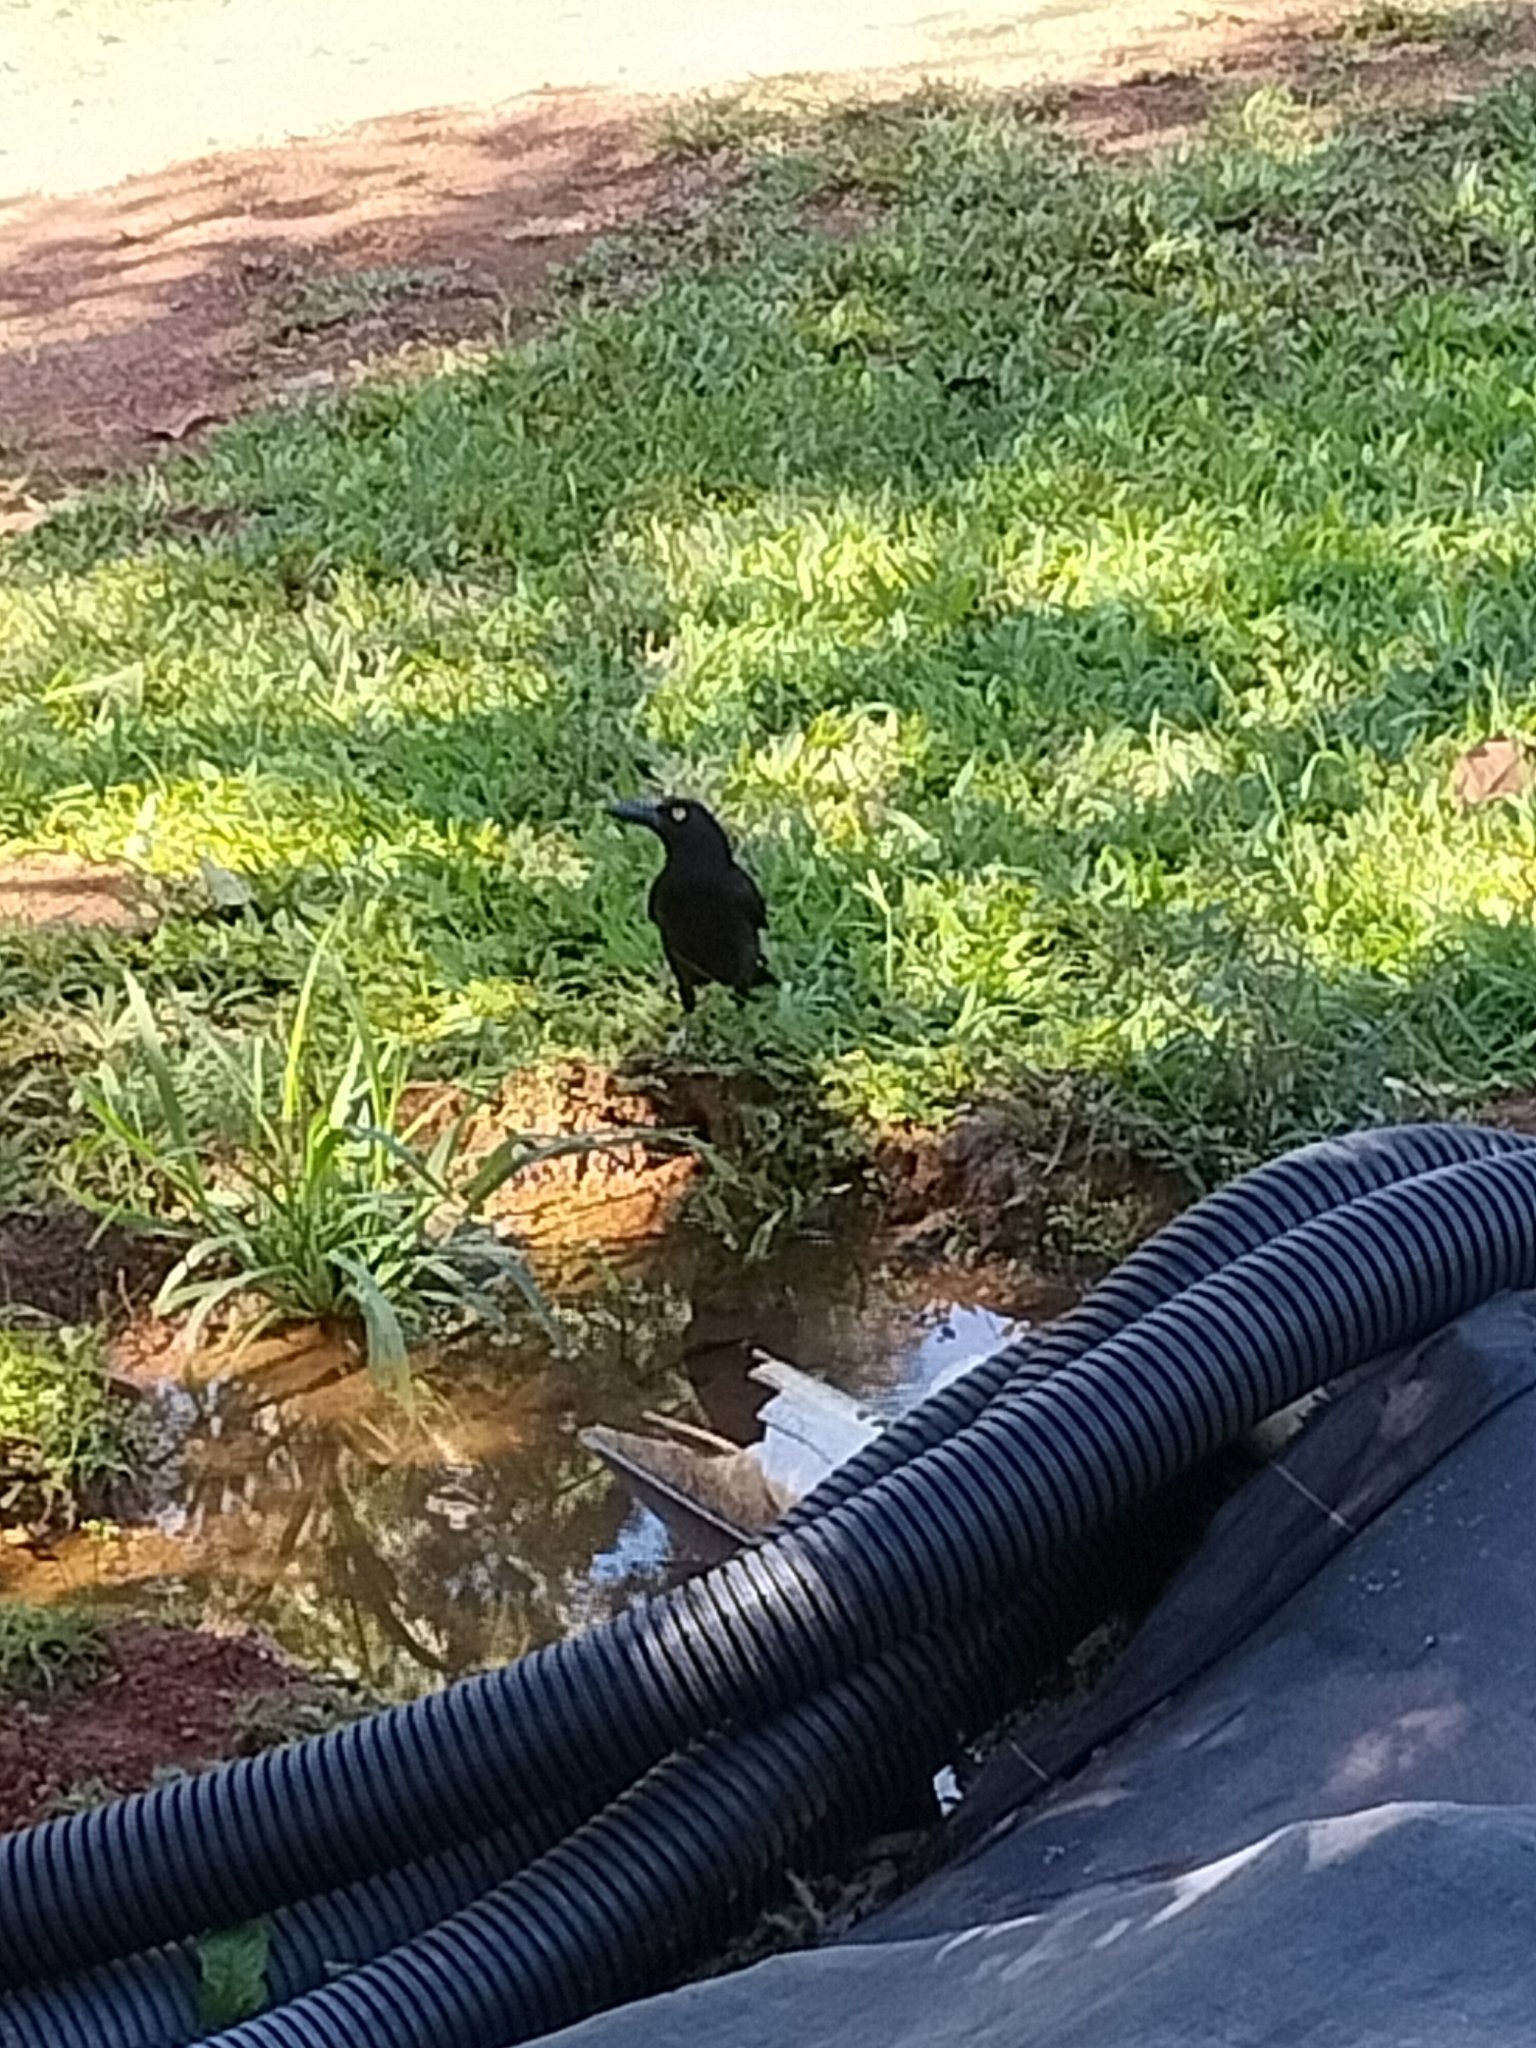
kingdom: Animalia
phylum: Chordata
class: Aves
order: Passeriformes
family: Cracticidae
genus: Strepera
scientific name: Strepera graculina
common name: Pied currawong
